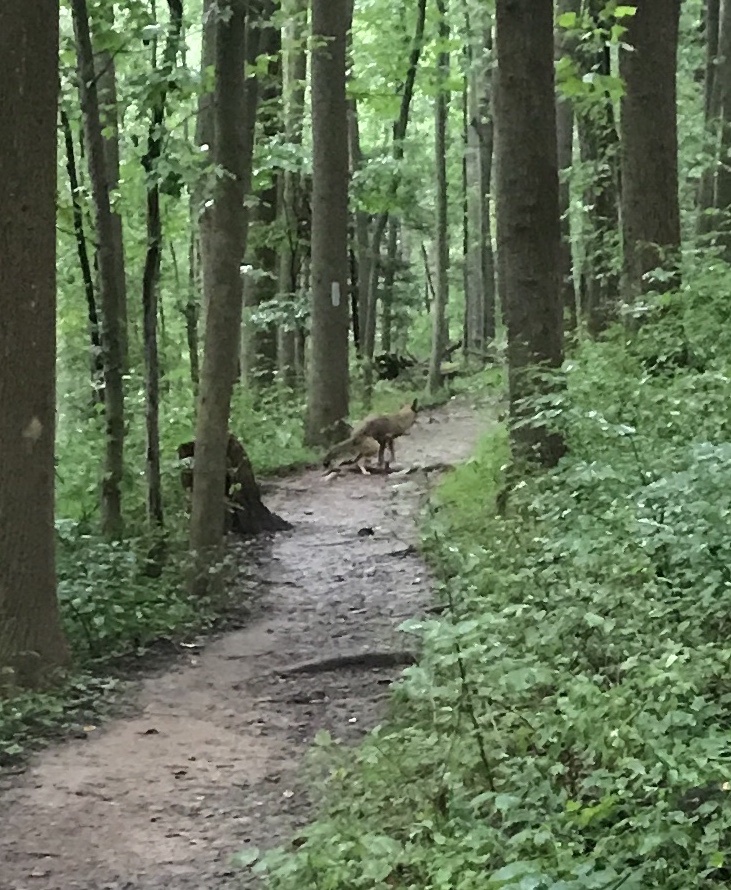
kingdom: Animalia
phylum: Chordata
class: Mammalia
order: Carnivora
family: Canidae
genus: Canis
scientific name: Canis latrans
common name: Coyote
